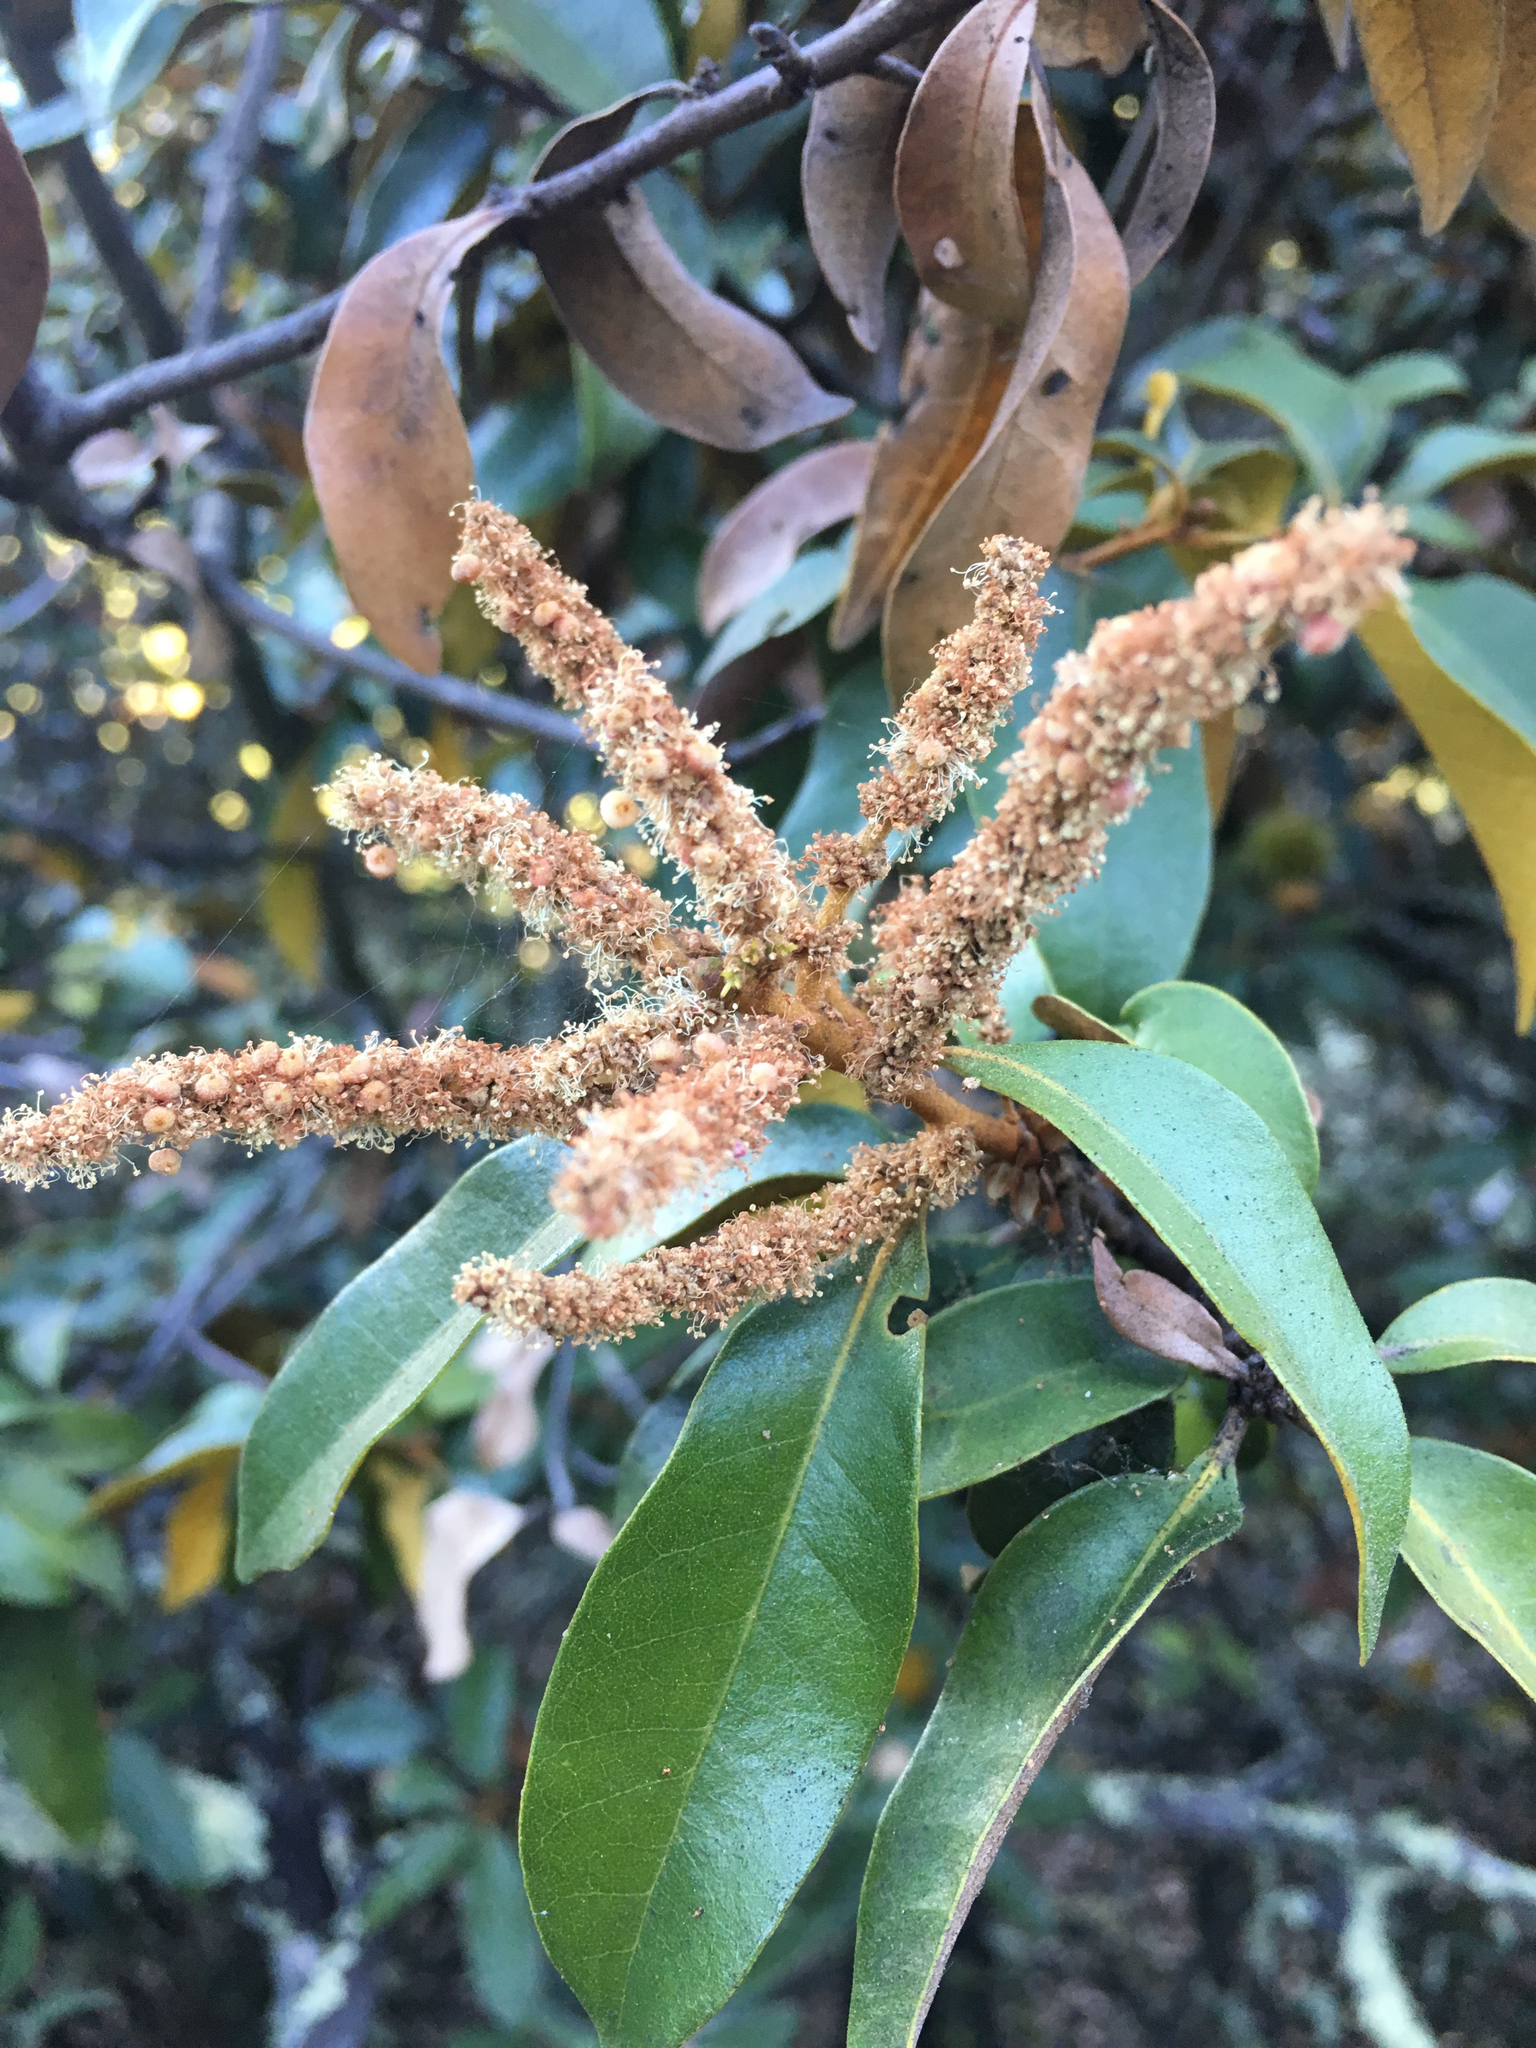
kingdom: Plantae
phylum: Tracheophyta
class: Magnoliopsida
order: Fagales
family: Fagaceae
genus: Chrysolepis
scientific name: Chrysolepis chrysophylla
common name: Giant chinquapin
